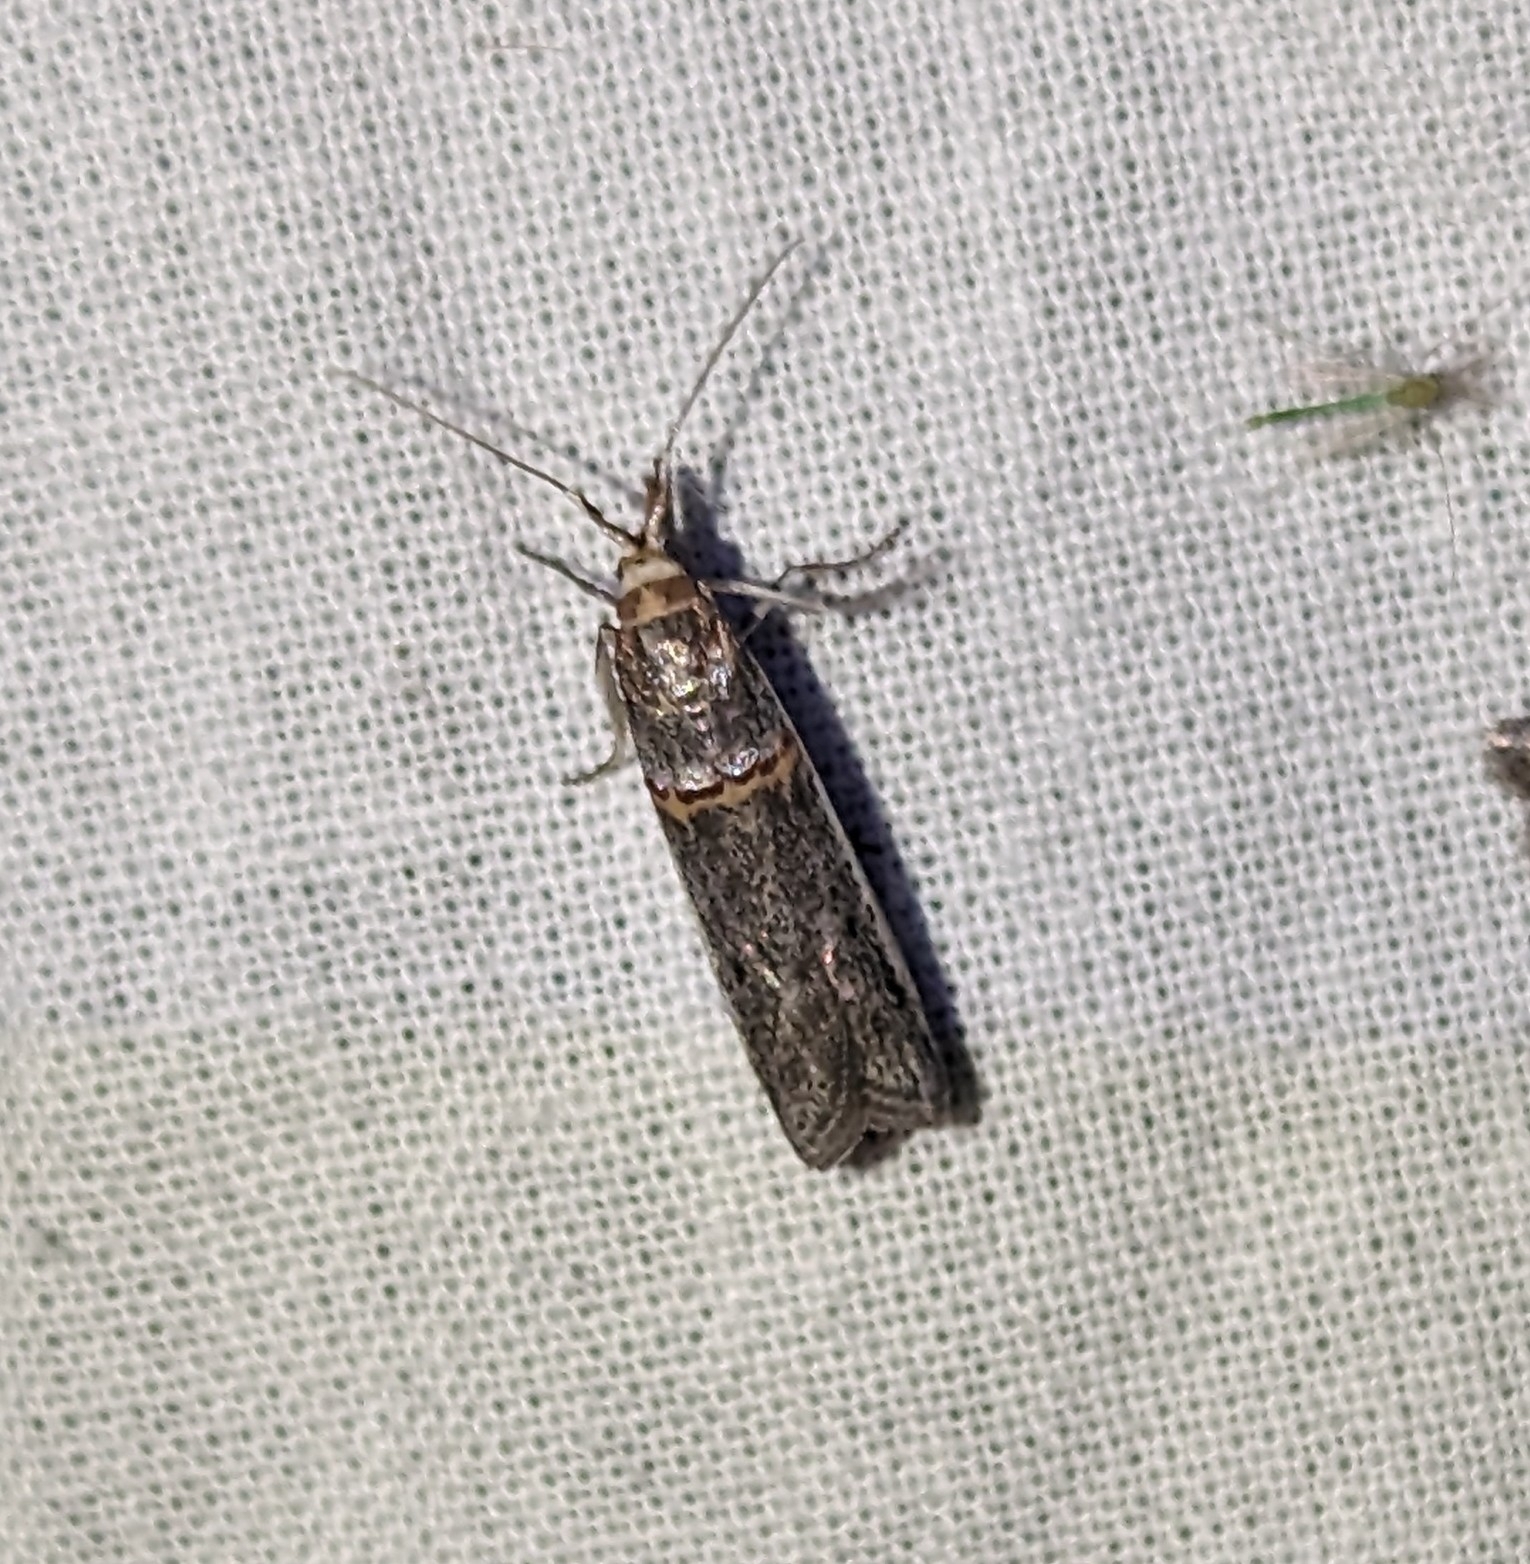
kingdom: Animalia
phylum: Arthropoda
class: Insecta
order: Lepidoptera
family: Pyralidae
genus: Etiella
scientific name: Etiella zinckenella
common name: Gold-banded etiella moth
